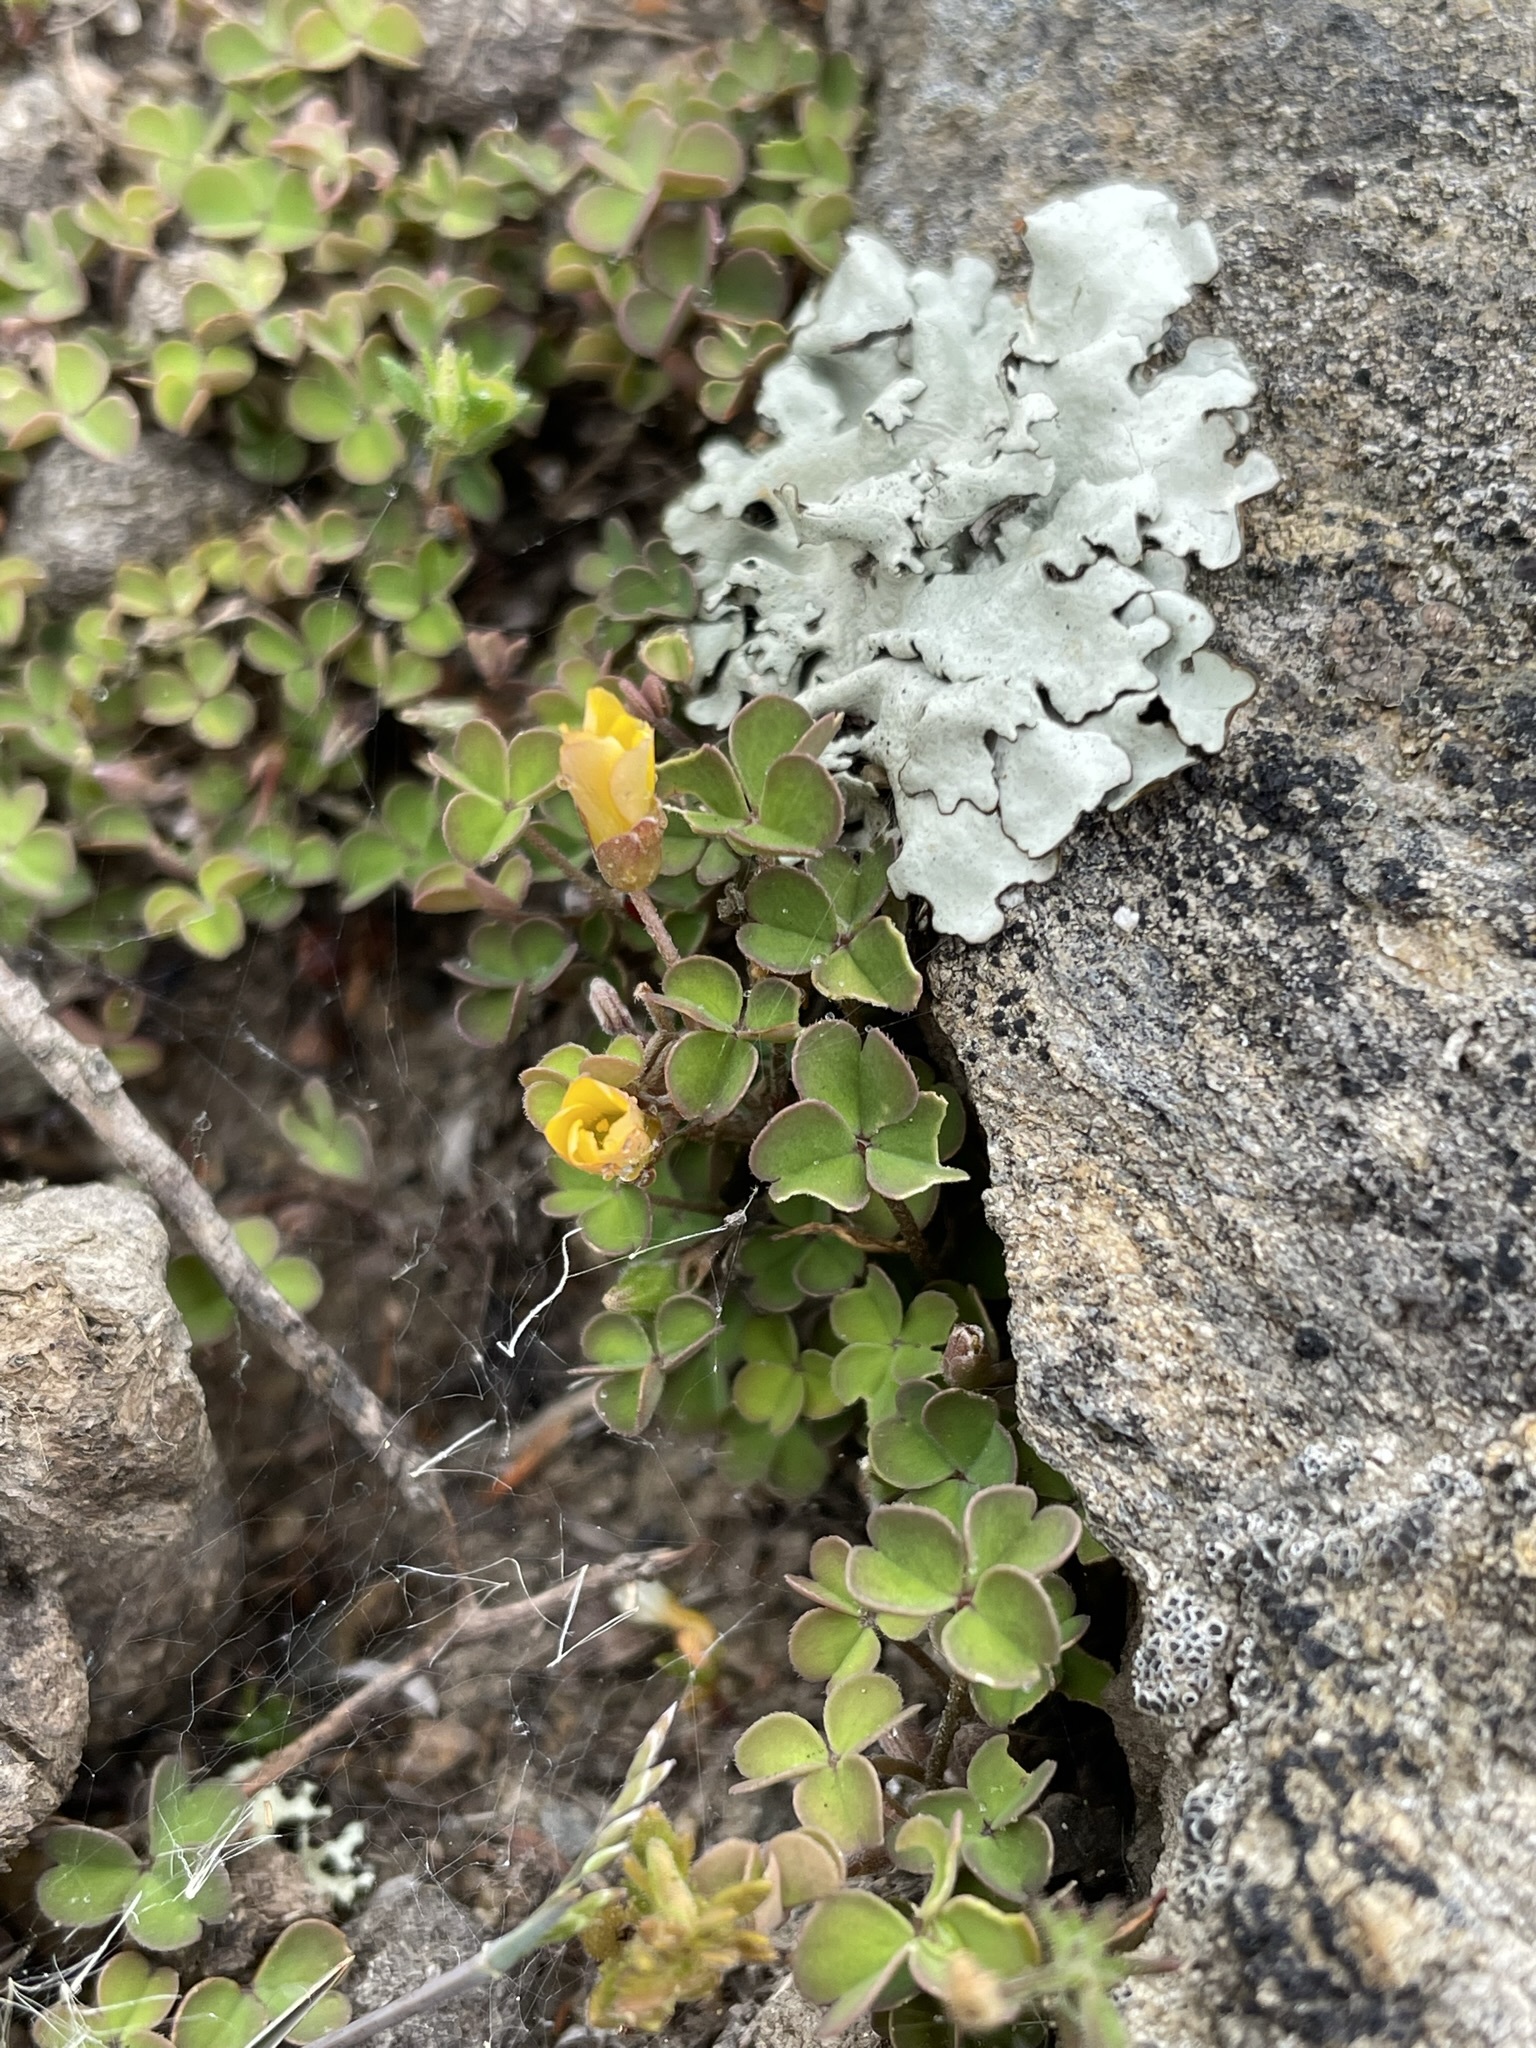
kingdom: Plantae
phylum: Tracheophyta
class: Magnoliopsida
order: Oxalidales
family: Oxalidaceae
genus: Oxalis
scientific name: Oxalis exilis
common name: Least yellow-sorrel
